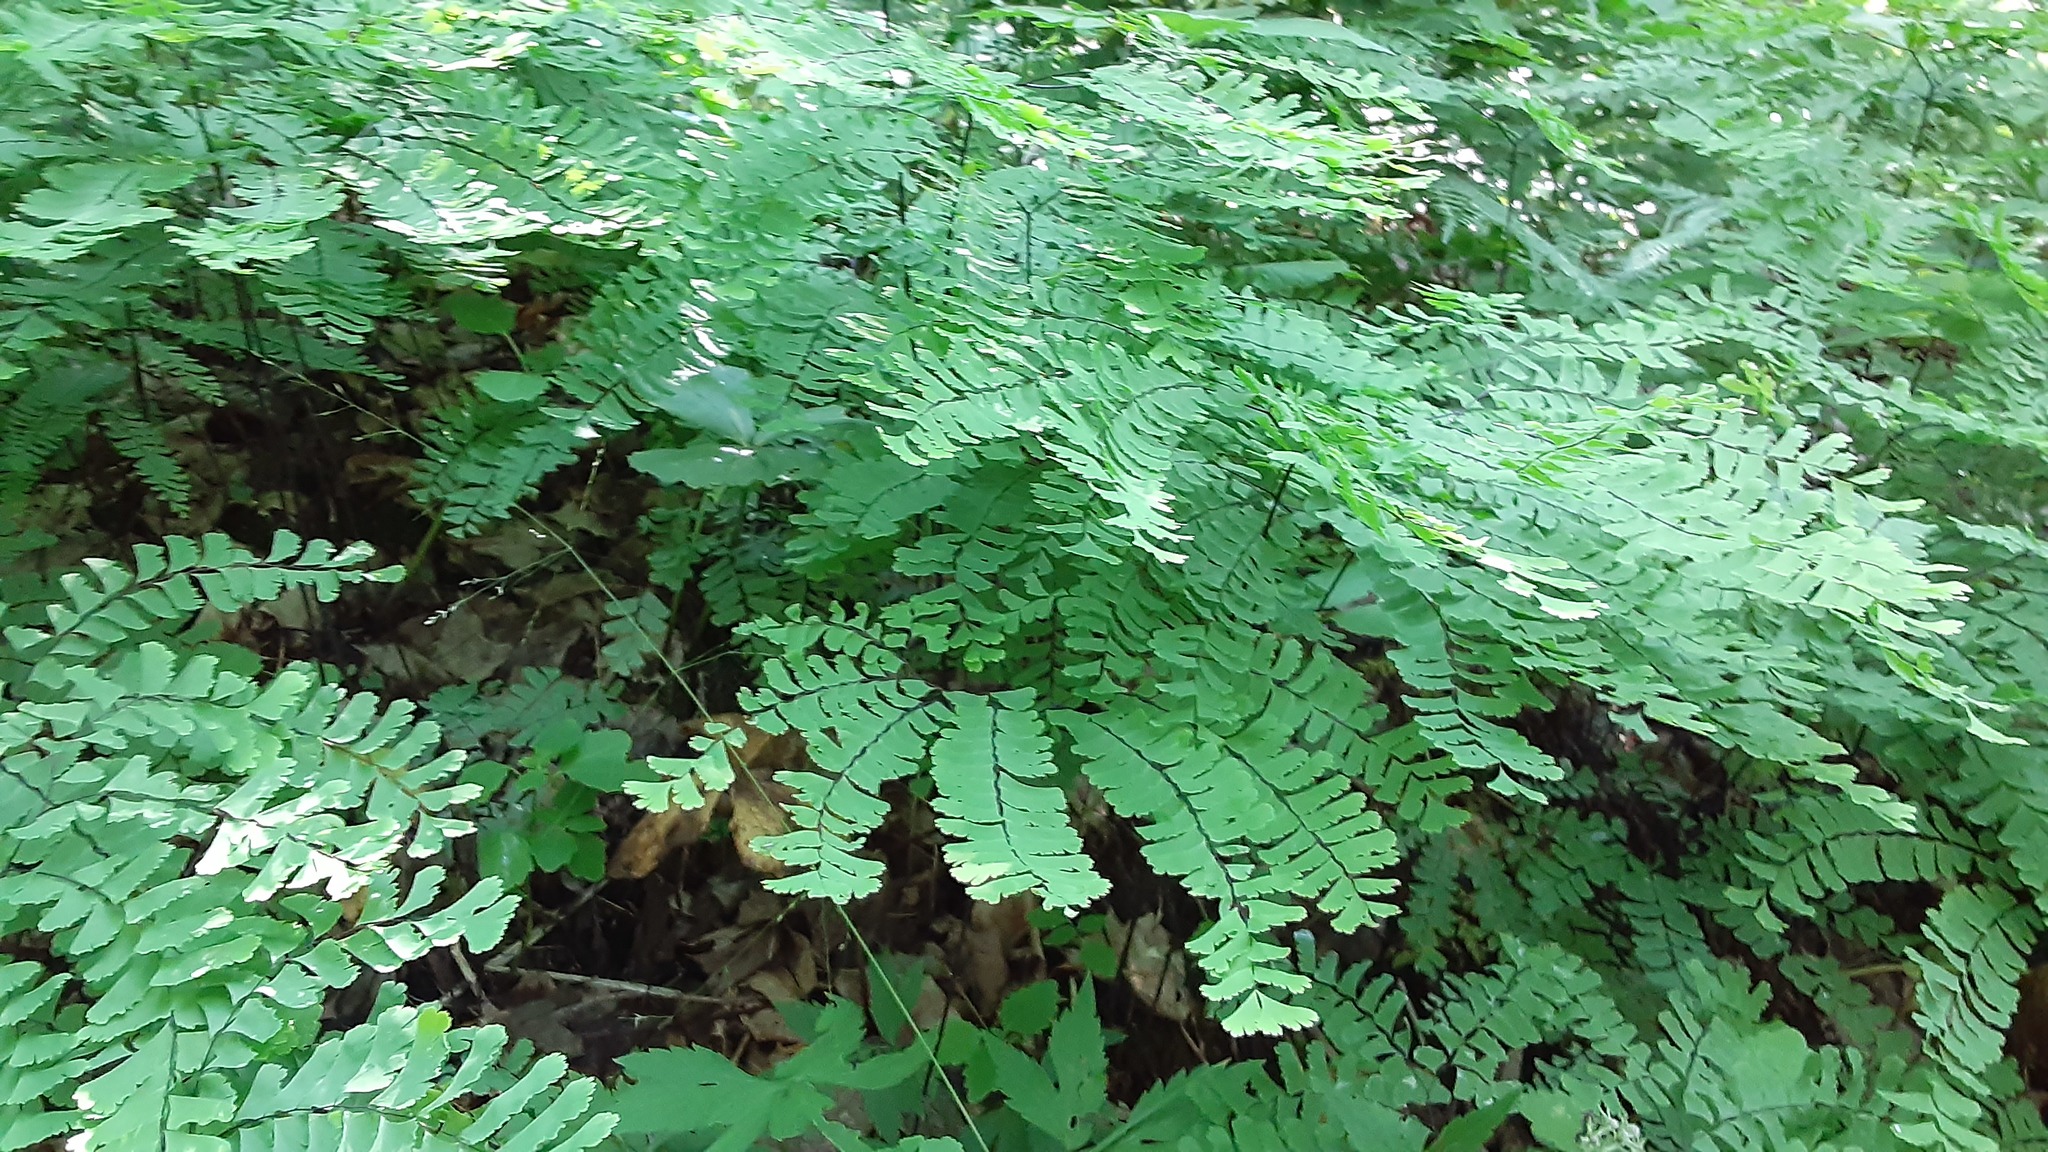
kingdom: Plantae
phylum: Tracheophyta
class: Polypodiopsida
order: Polypodiales
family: Pteridaceae
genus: Adiantum
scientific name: Adiantum pedatum
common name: Five-finger fern
